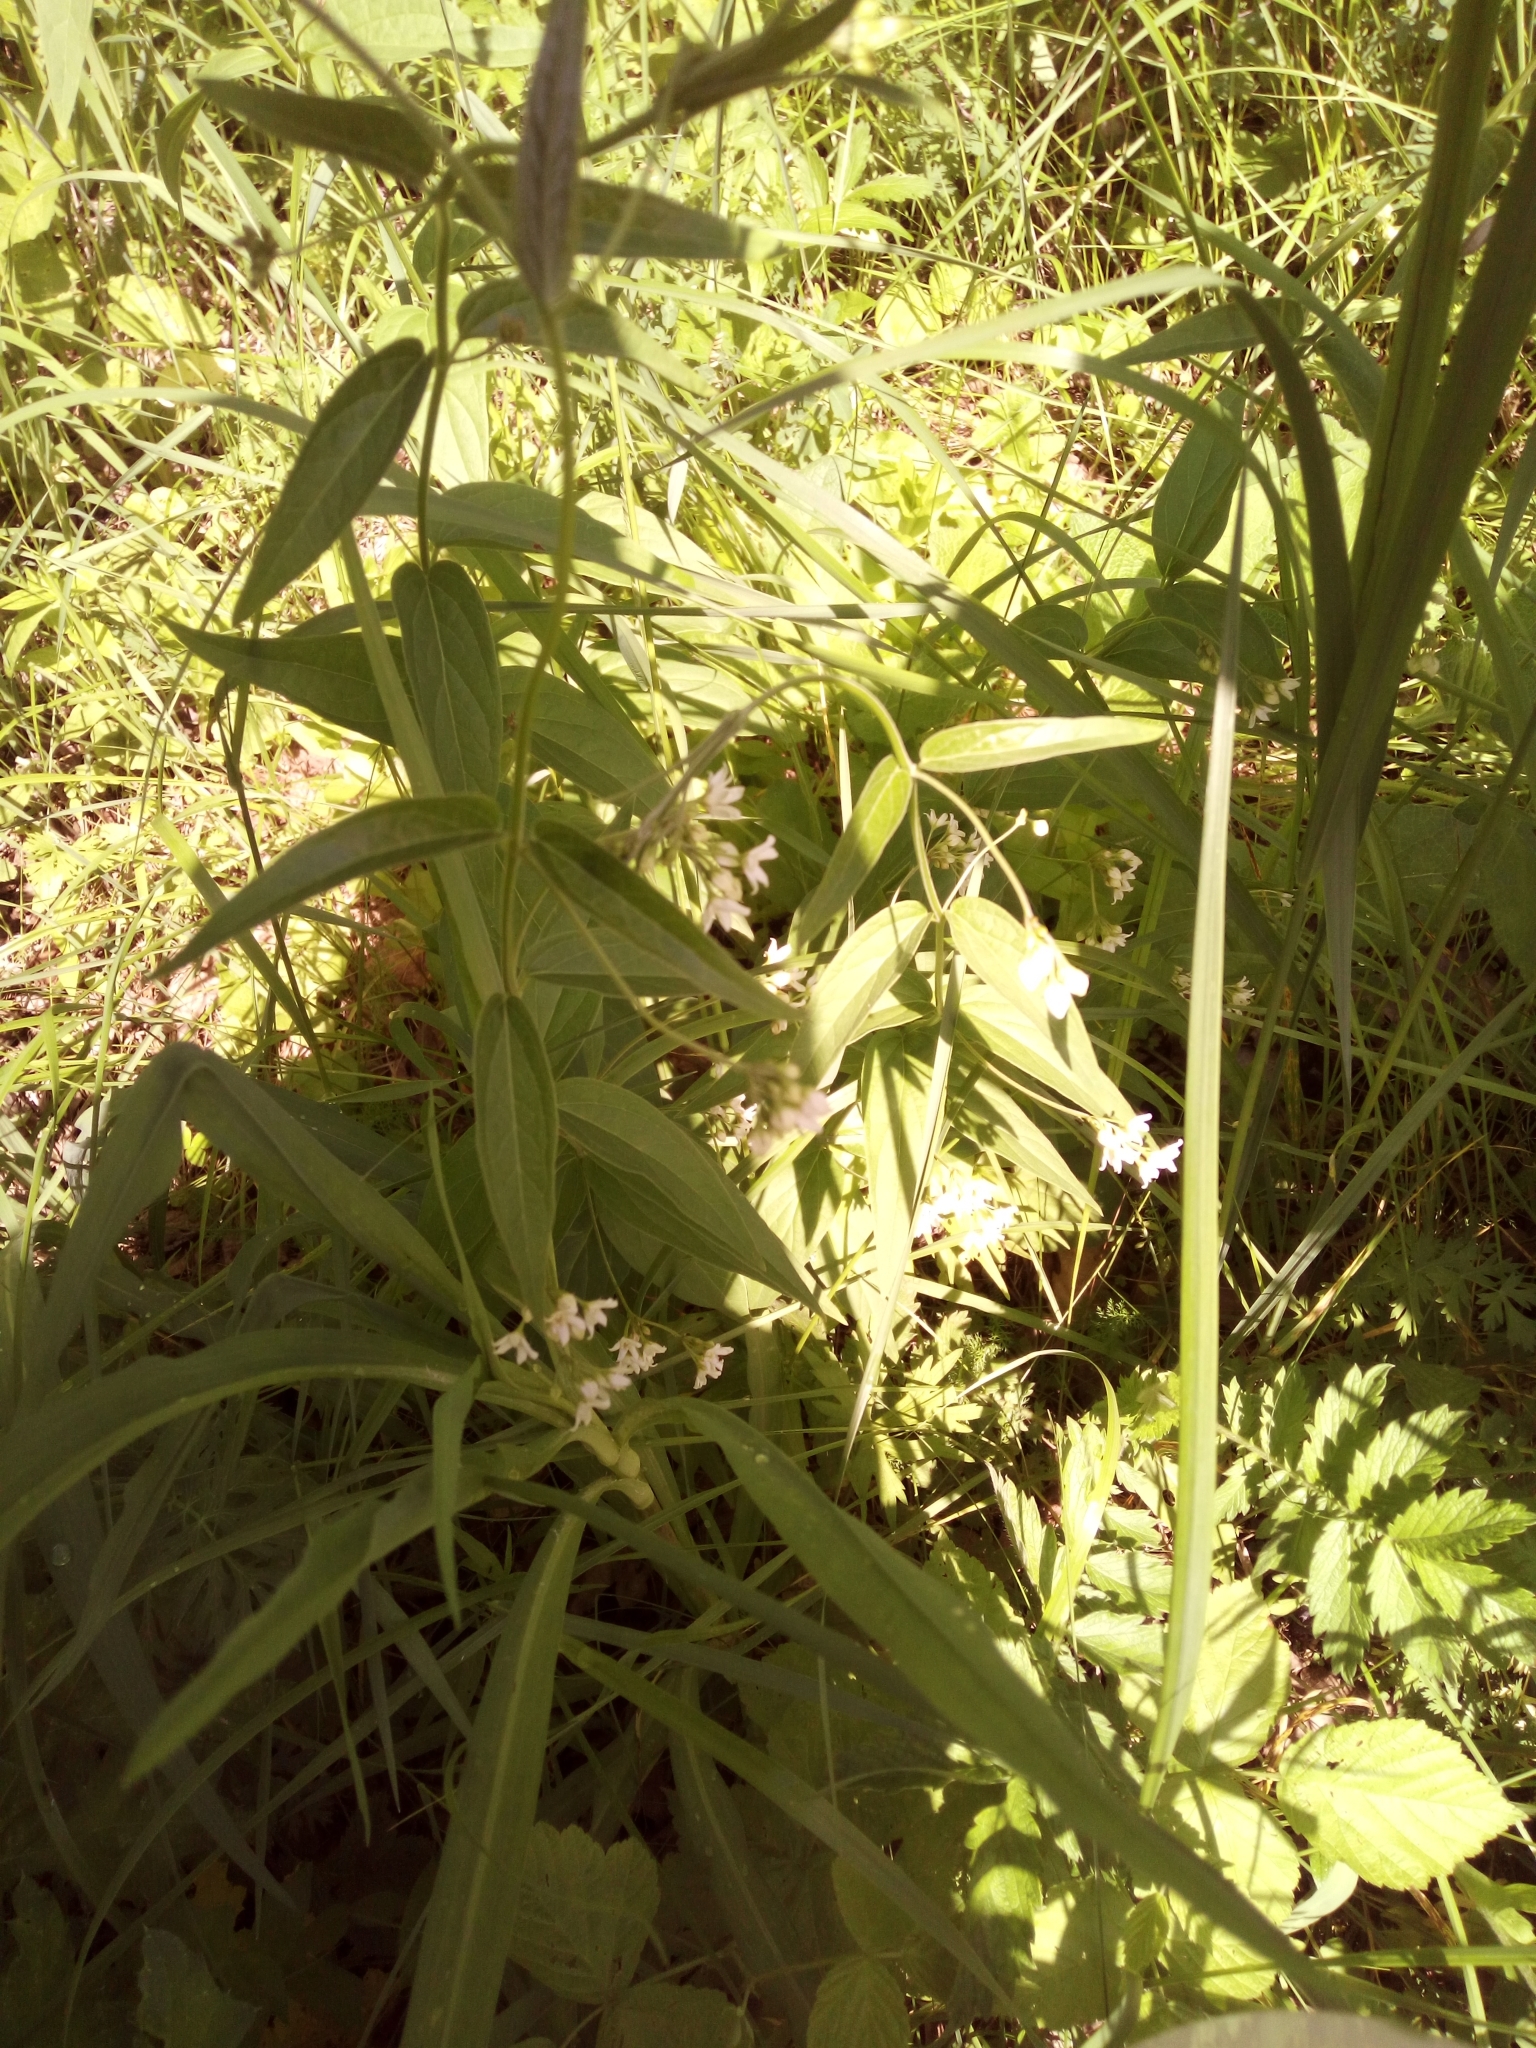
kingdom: Plantae
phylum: Tracheophyta
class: Magnoliopsida
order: Gentianales
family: Apocynaceae
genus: Vincetoxicum
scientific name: Vincetoxicum hirundinaria
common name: White swallowwort
